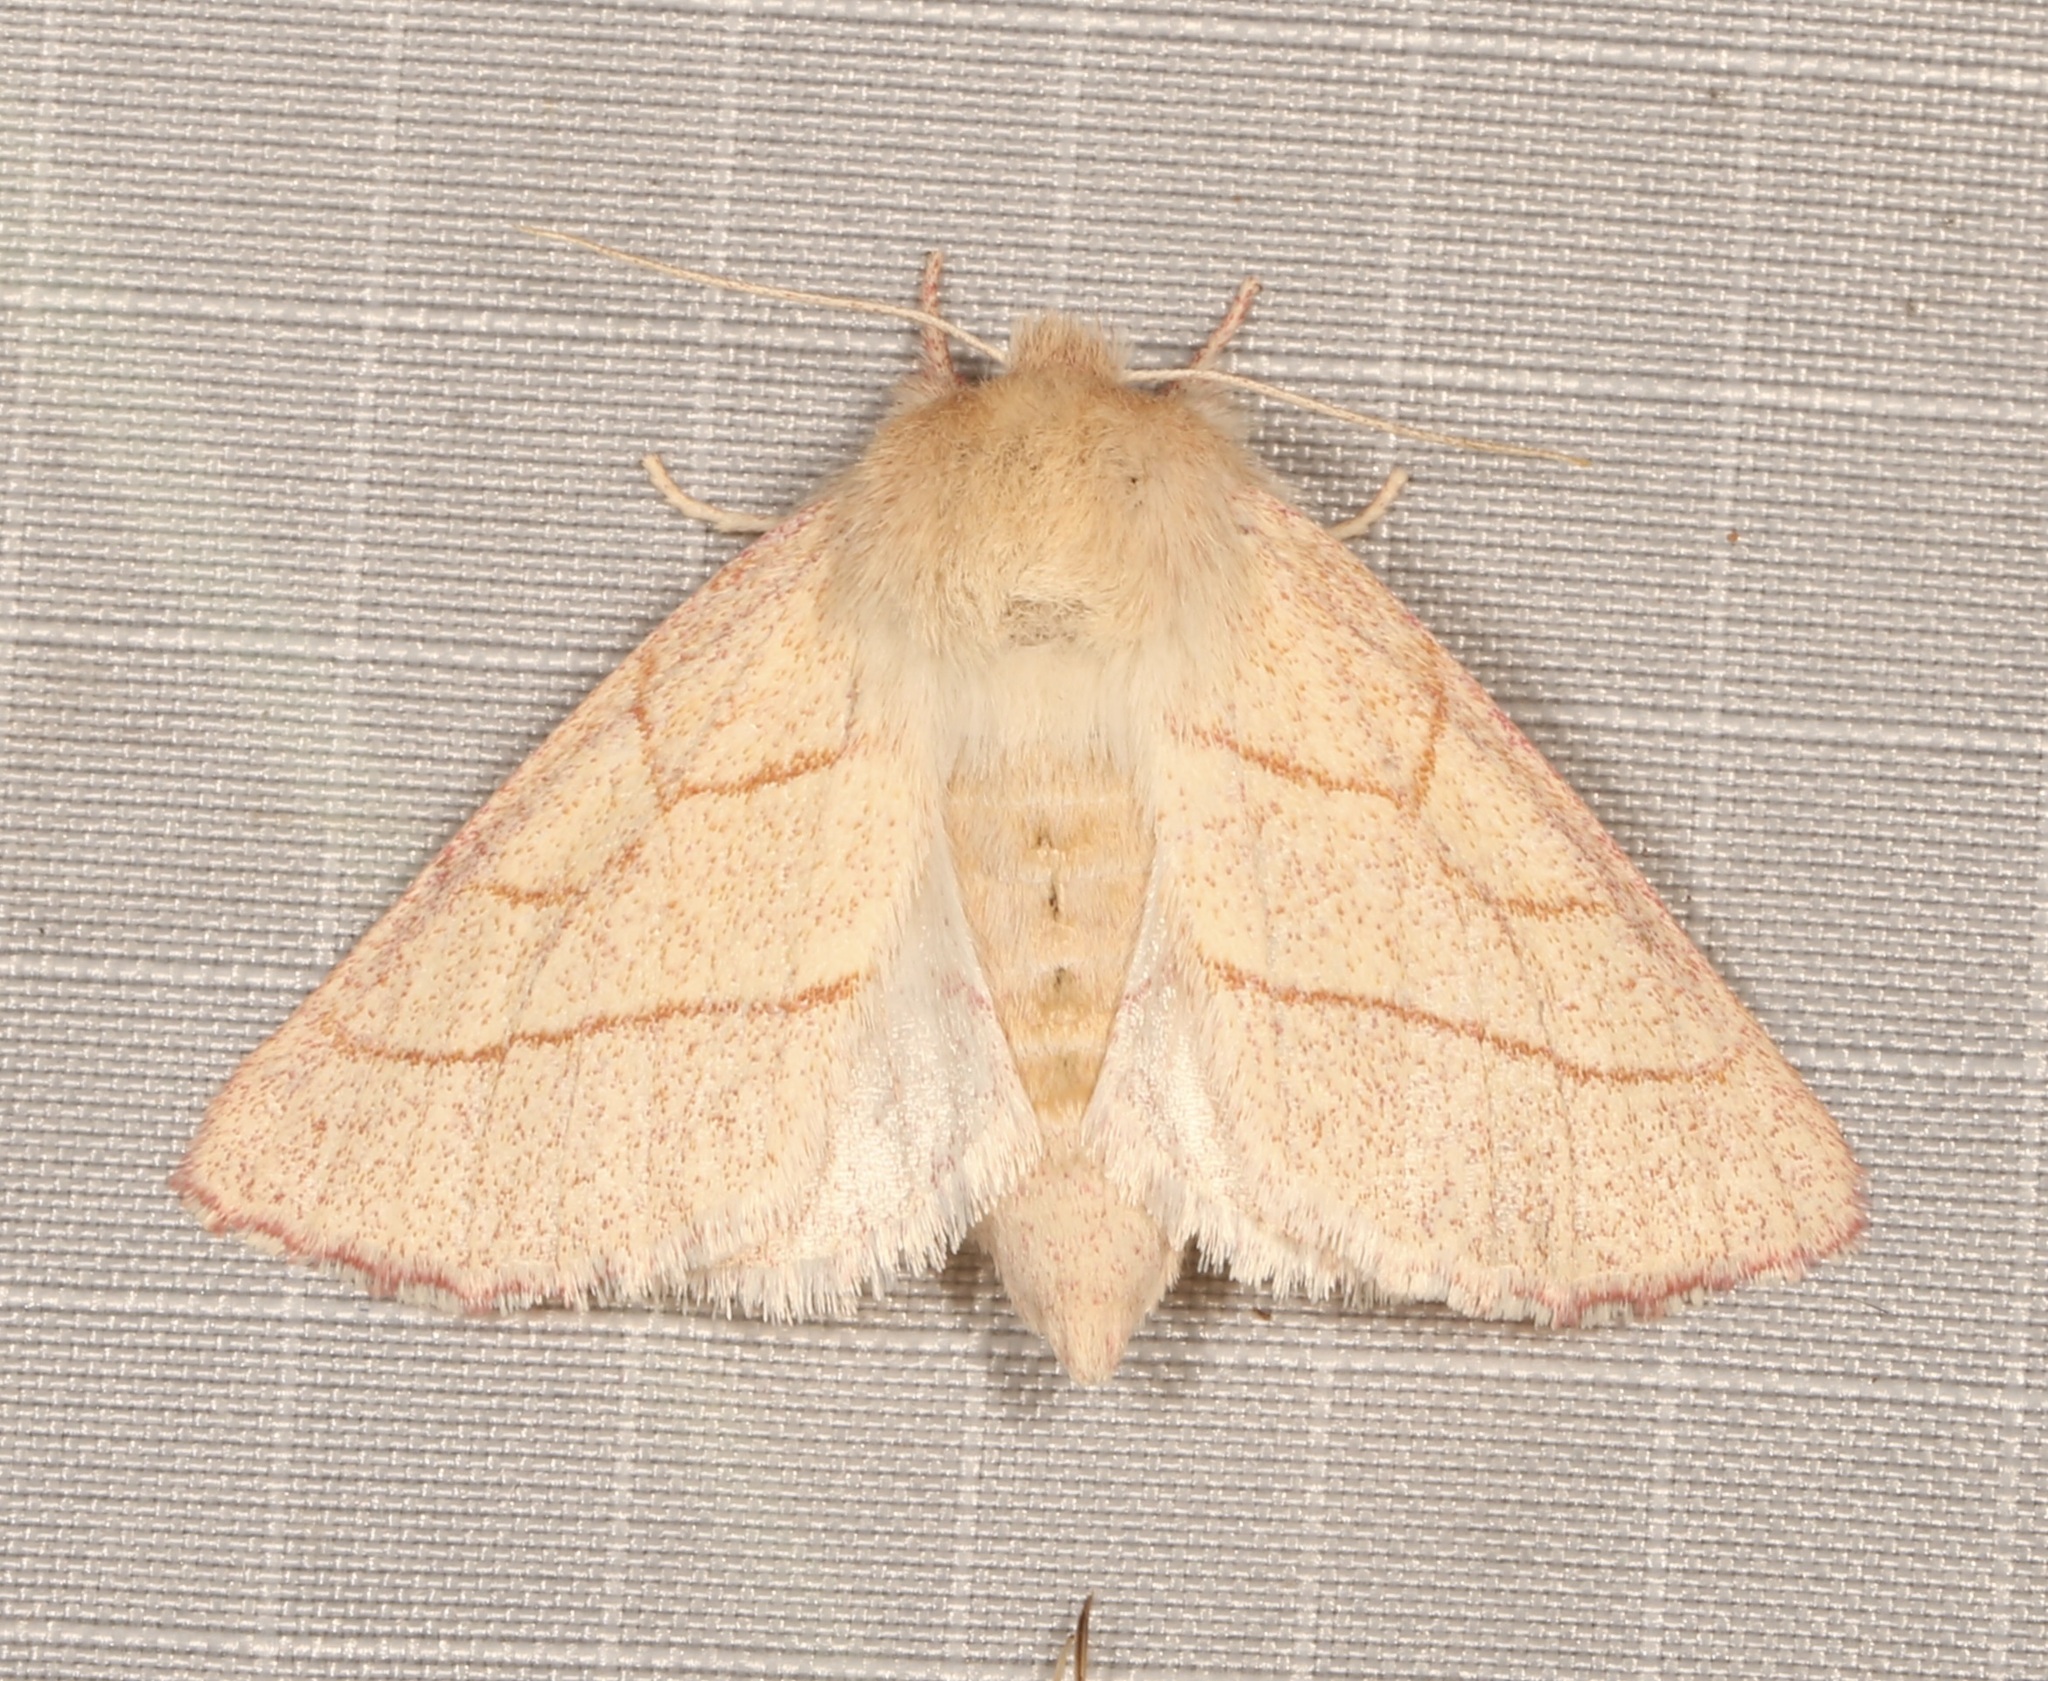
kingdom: Animalia
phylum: Arthropoda
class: Insecta
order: Lepidoptera
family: Notodontidae
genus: Hyparpax
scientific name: Hyparpax aurostriata
